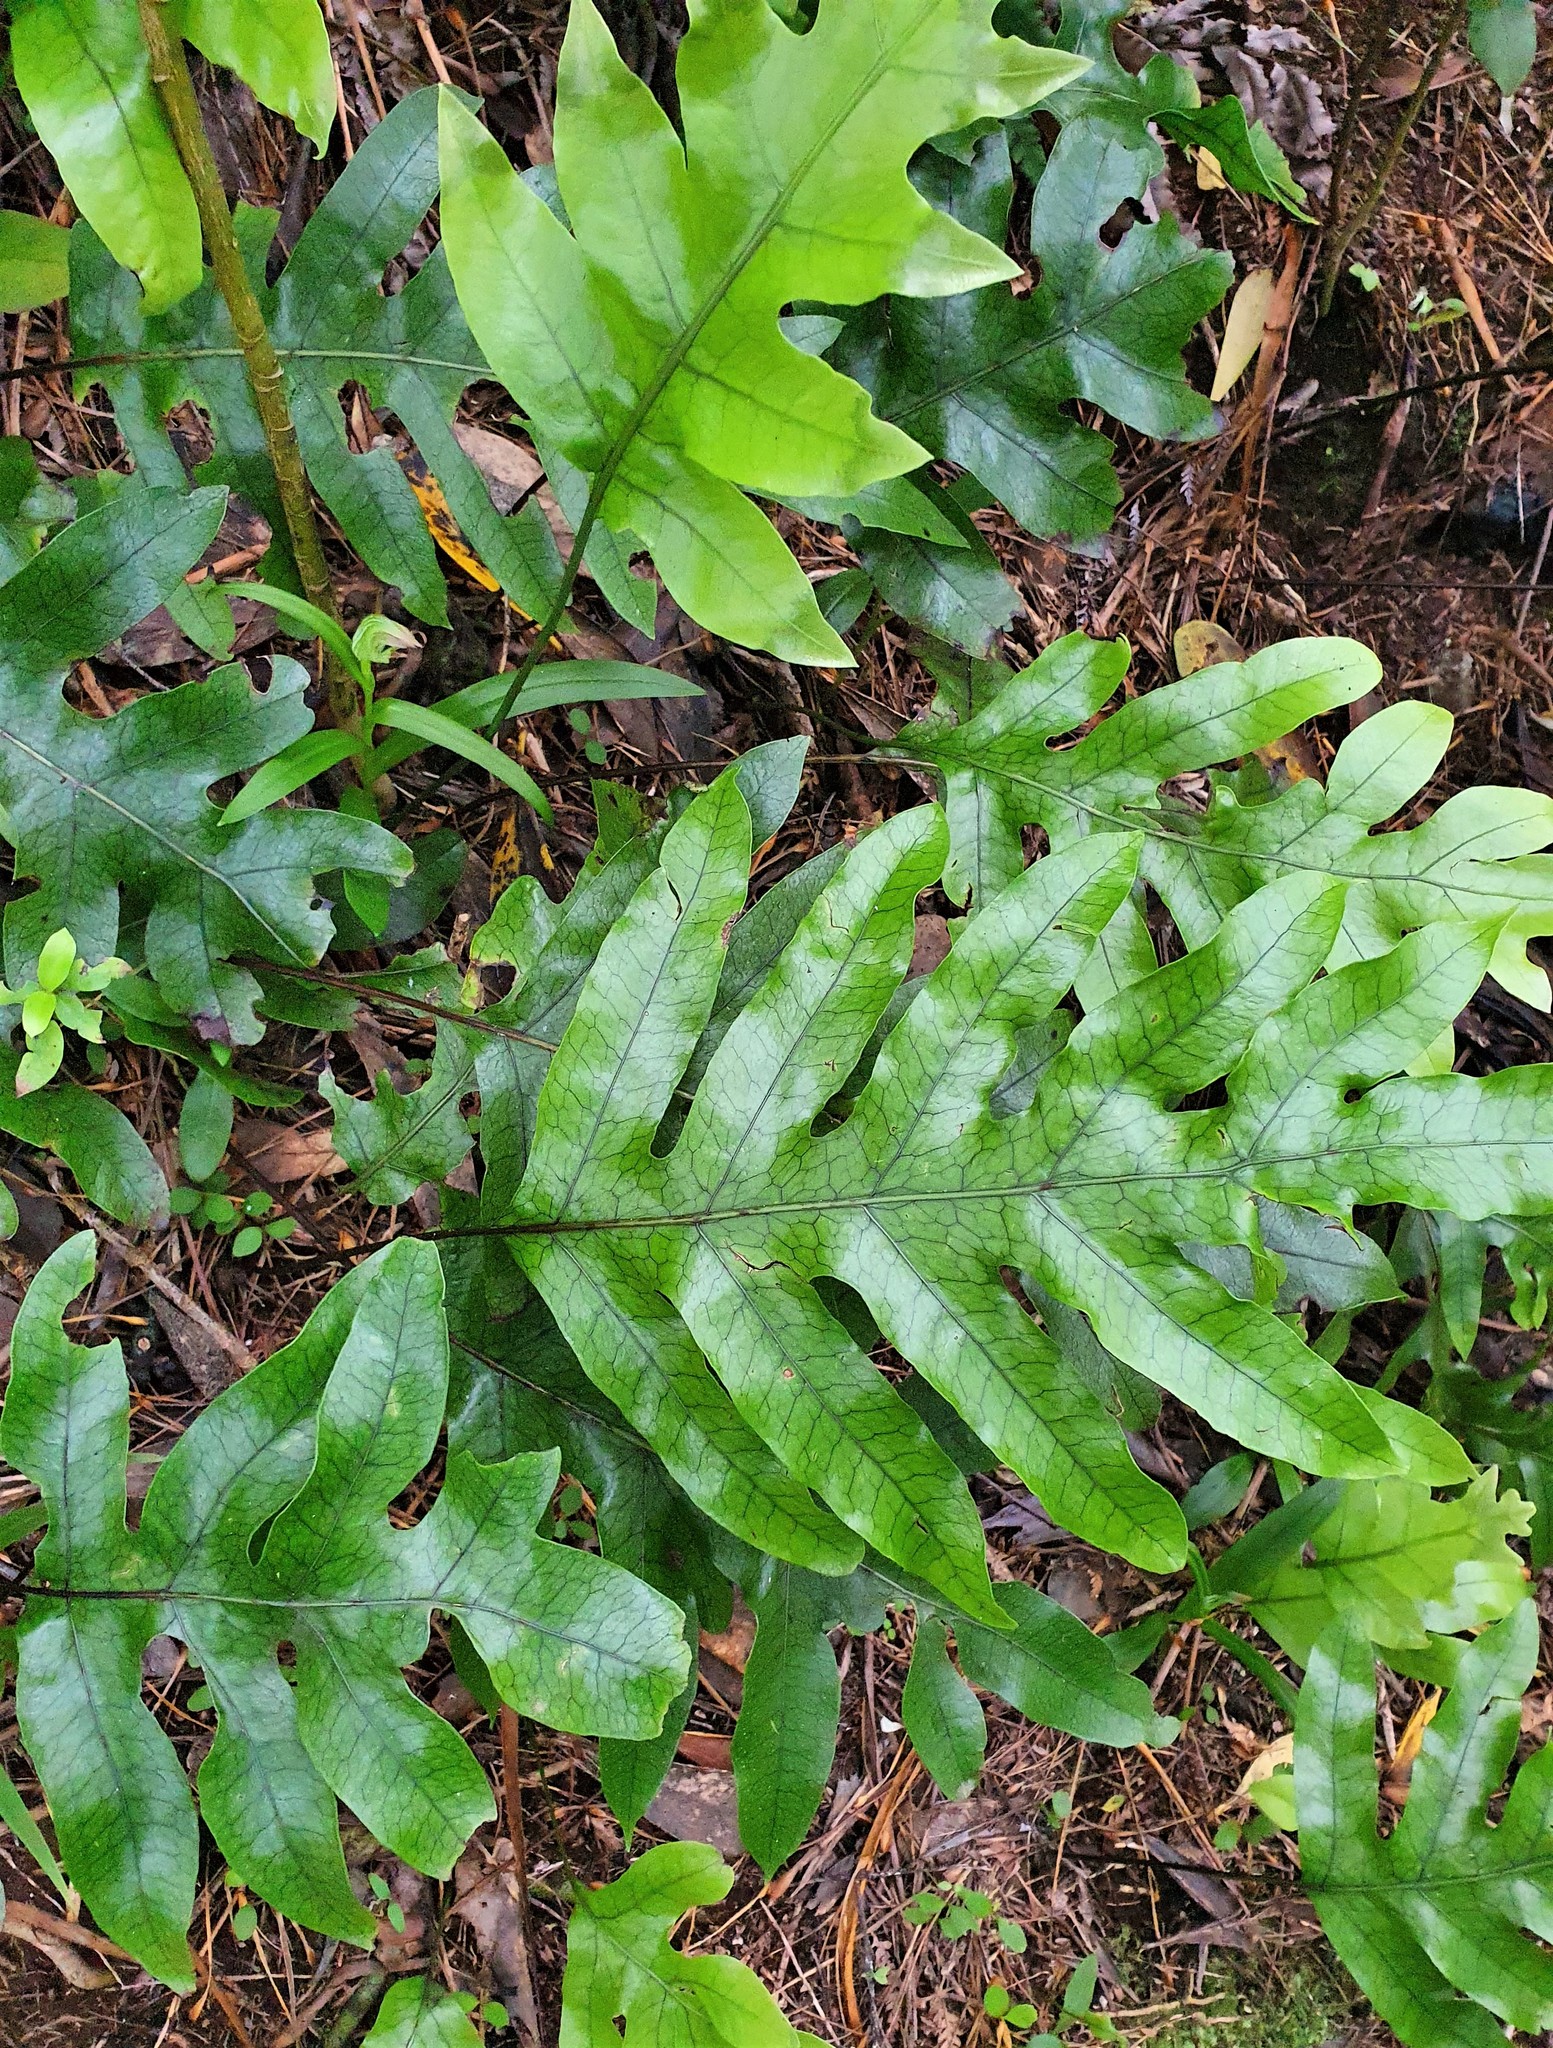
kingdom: Plantae
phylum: Tracheophyta
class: Polypodiopsida
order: Polypodiales
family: Polypodiaceae
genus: Lecanopteris
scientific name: Lecanopteris pustulata
